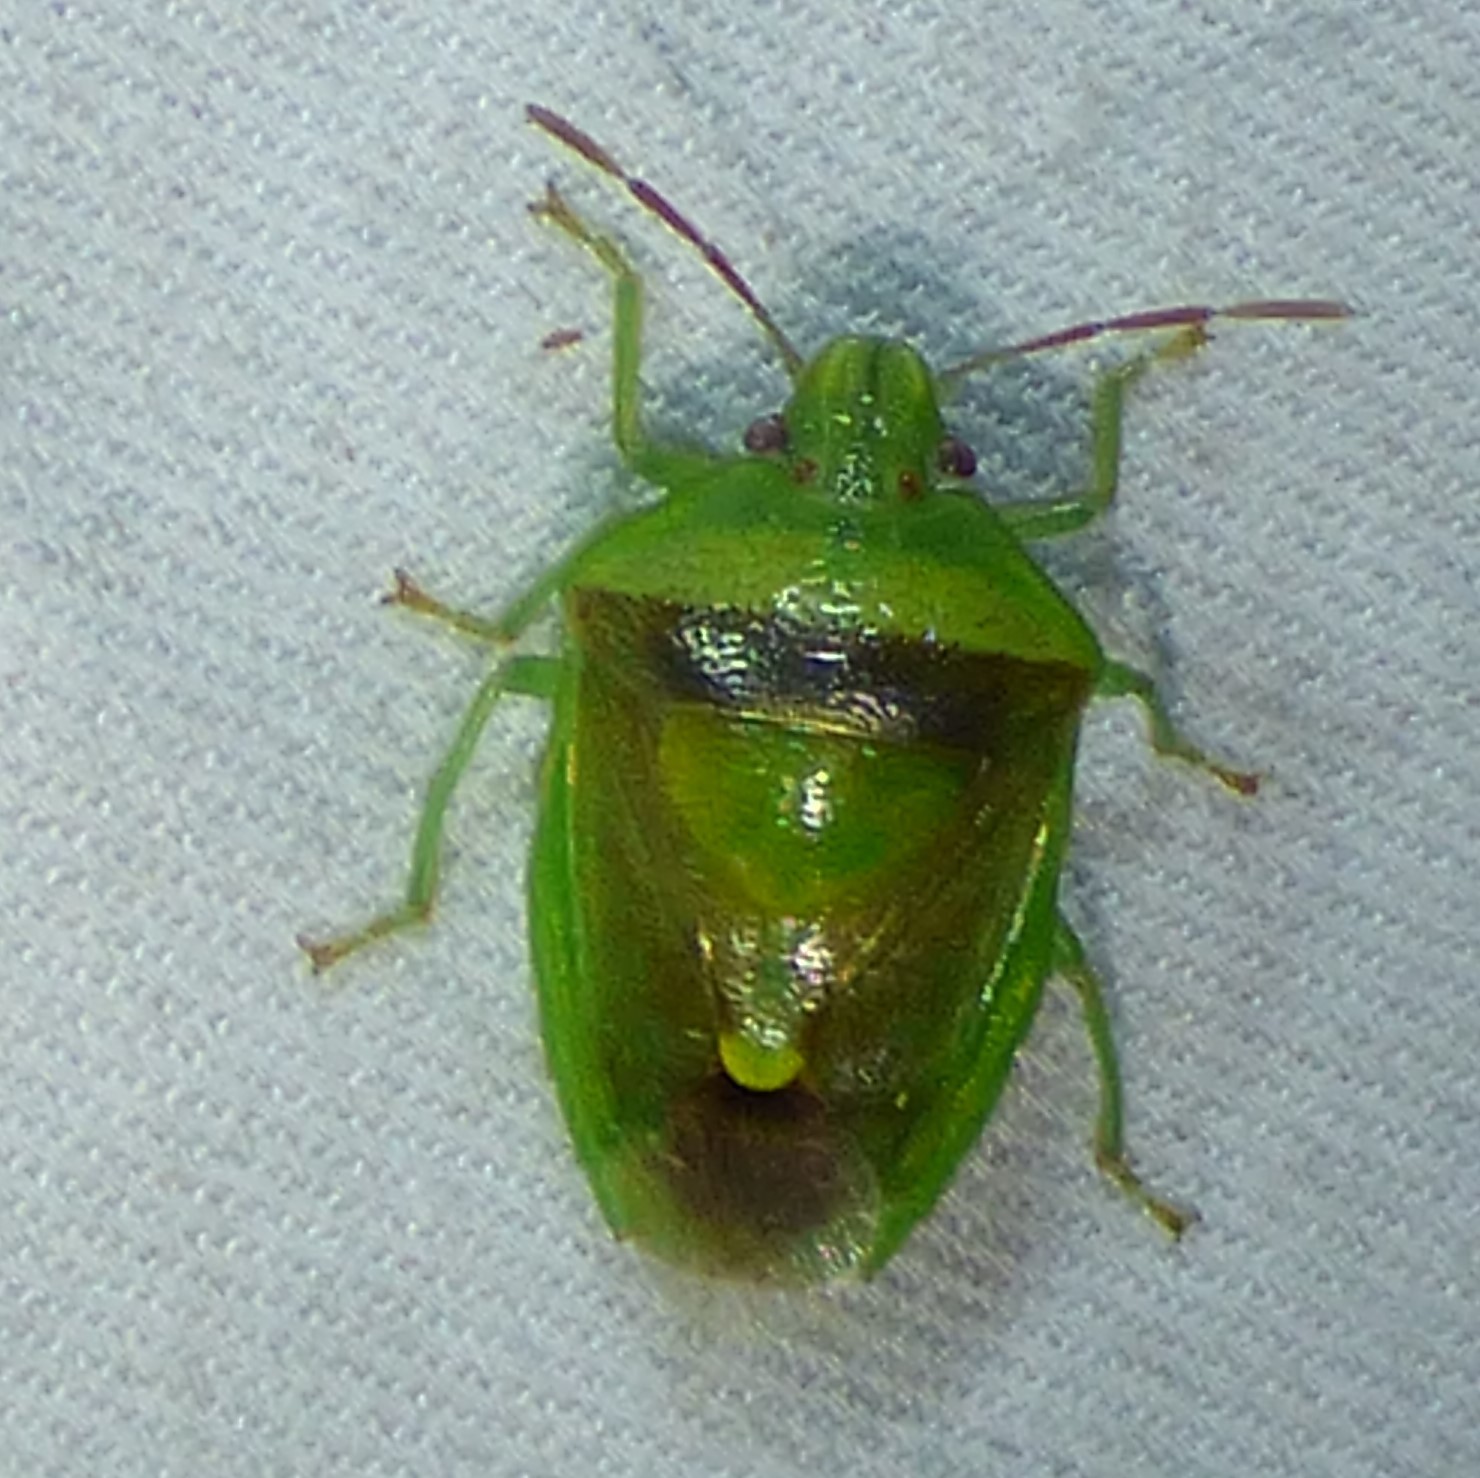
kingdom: Animalia
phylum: Arthropoda
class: Insecta
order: Hemiptera
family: Pentatomidae
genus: Banasa
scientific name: Banasa dimidiata
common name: Green burgundy stink bug
